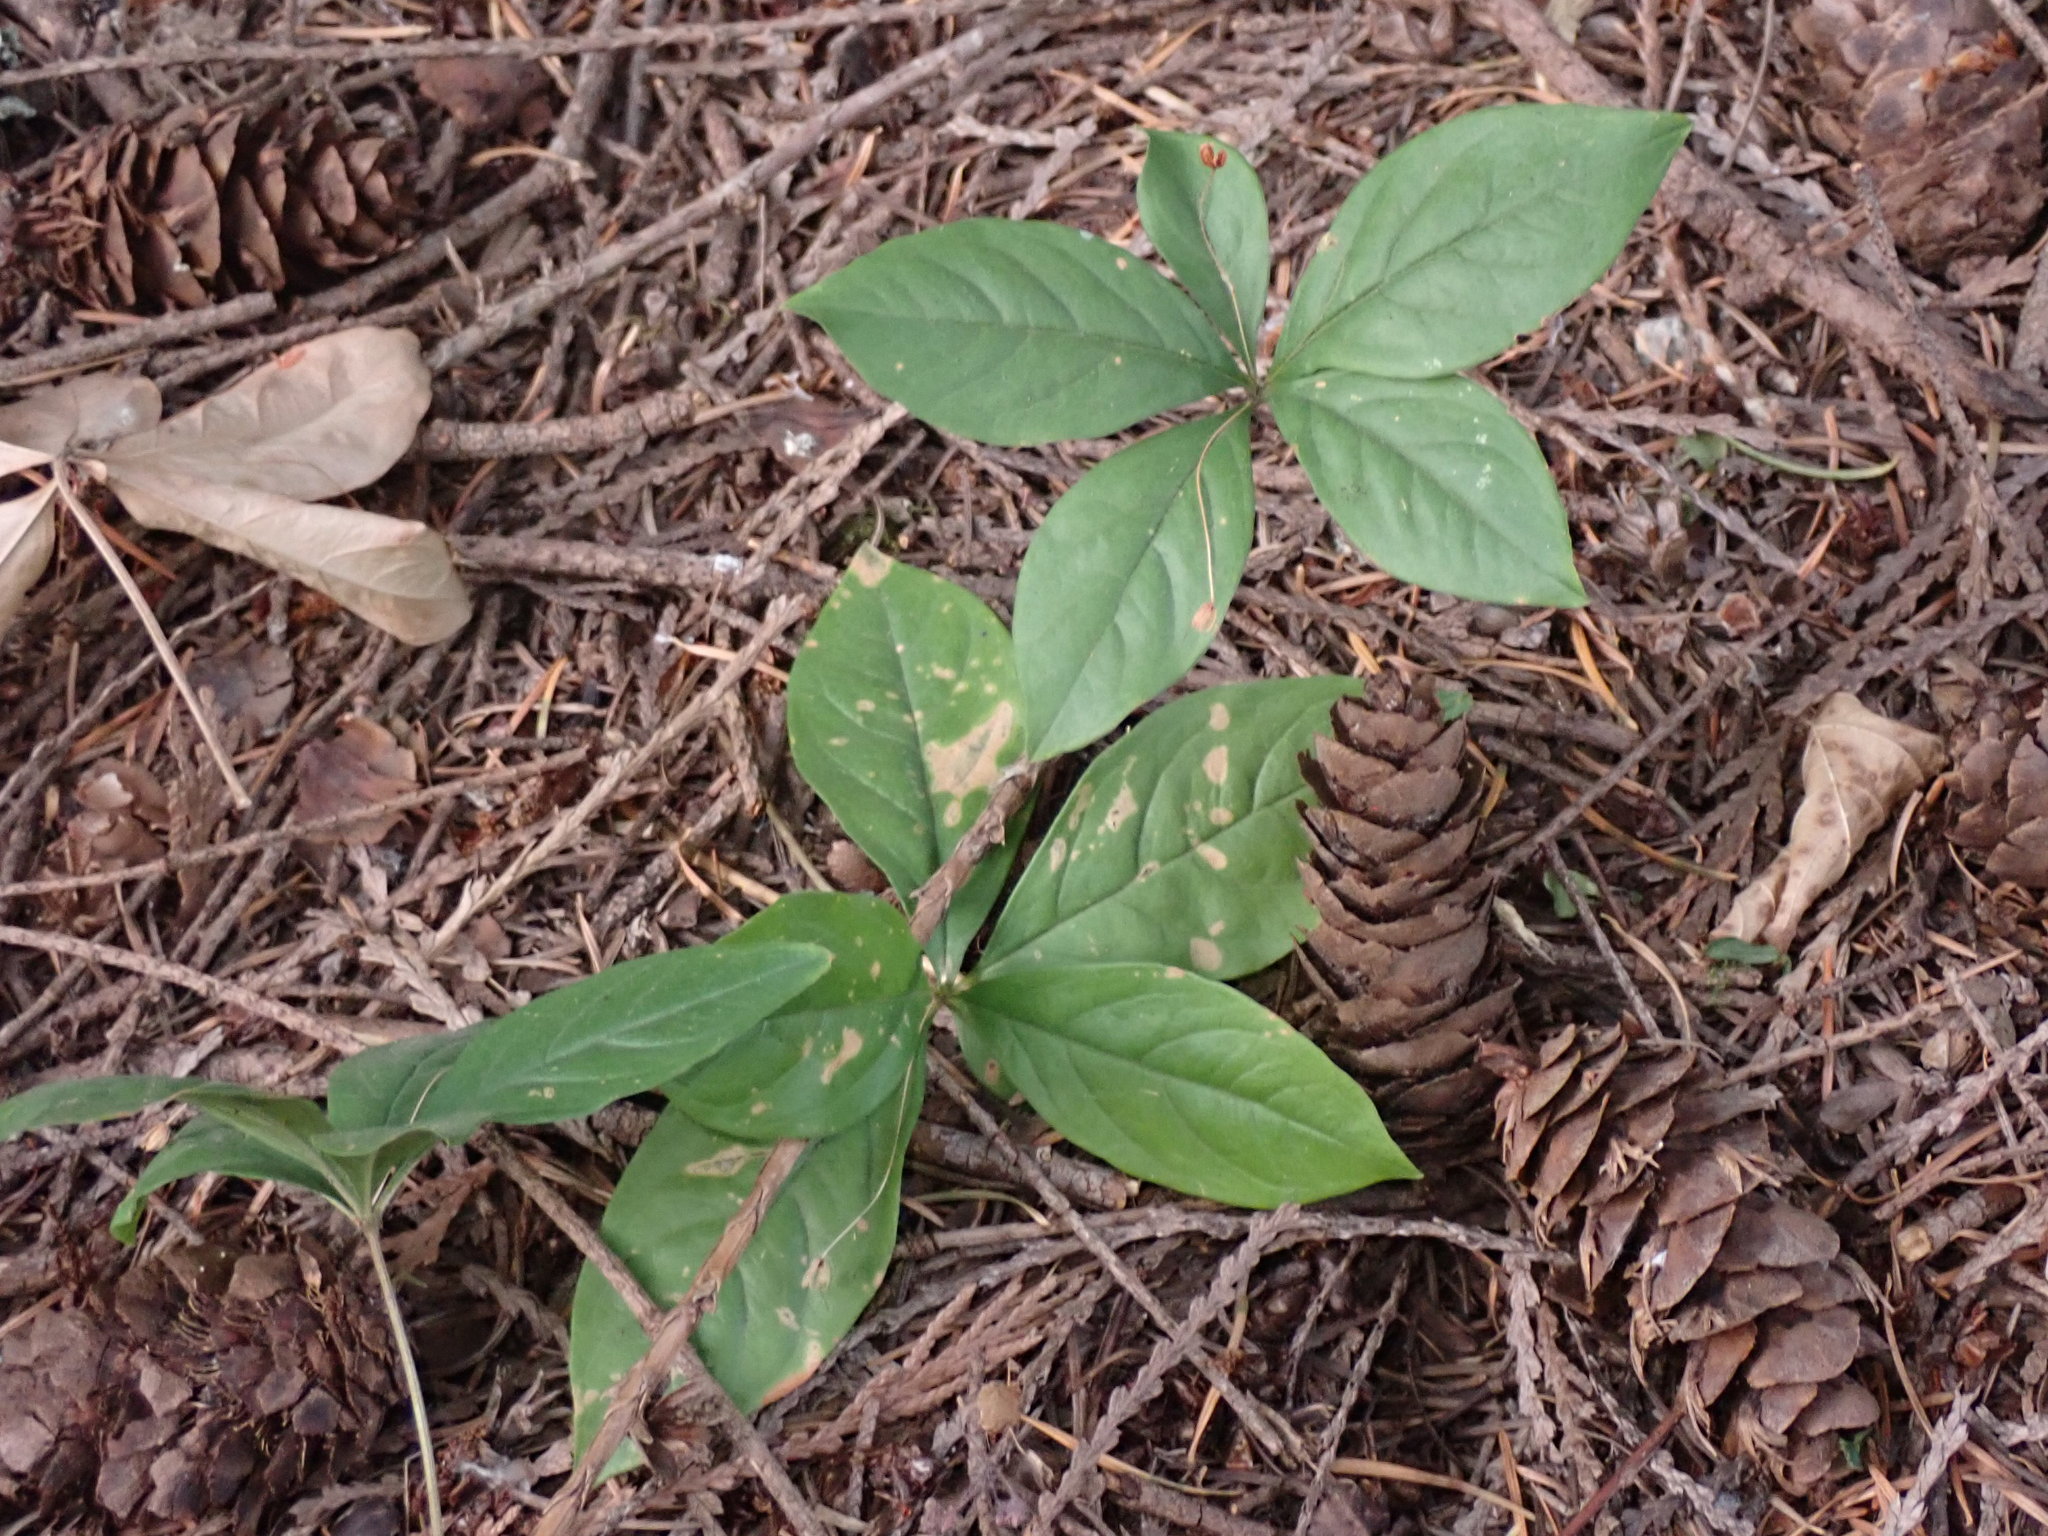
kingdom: Plantae
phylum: Tracheophyta
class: Magnoliopsida
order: Ericales
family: Primulaceae
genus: Lysimachia
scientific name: Lysimachia latifolia
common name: Pacific starflower
